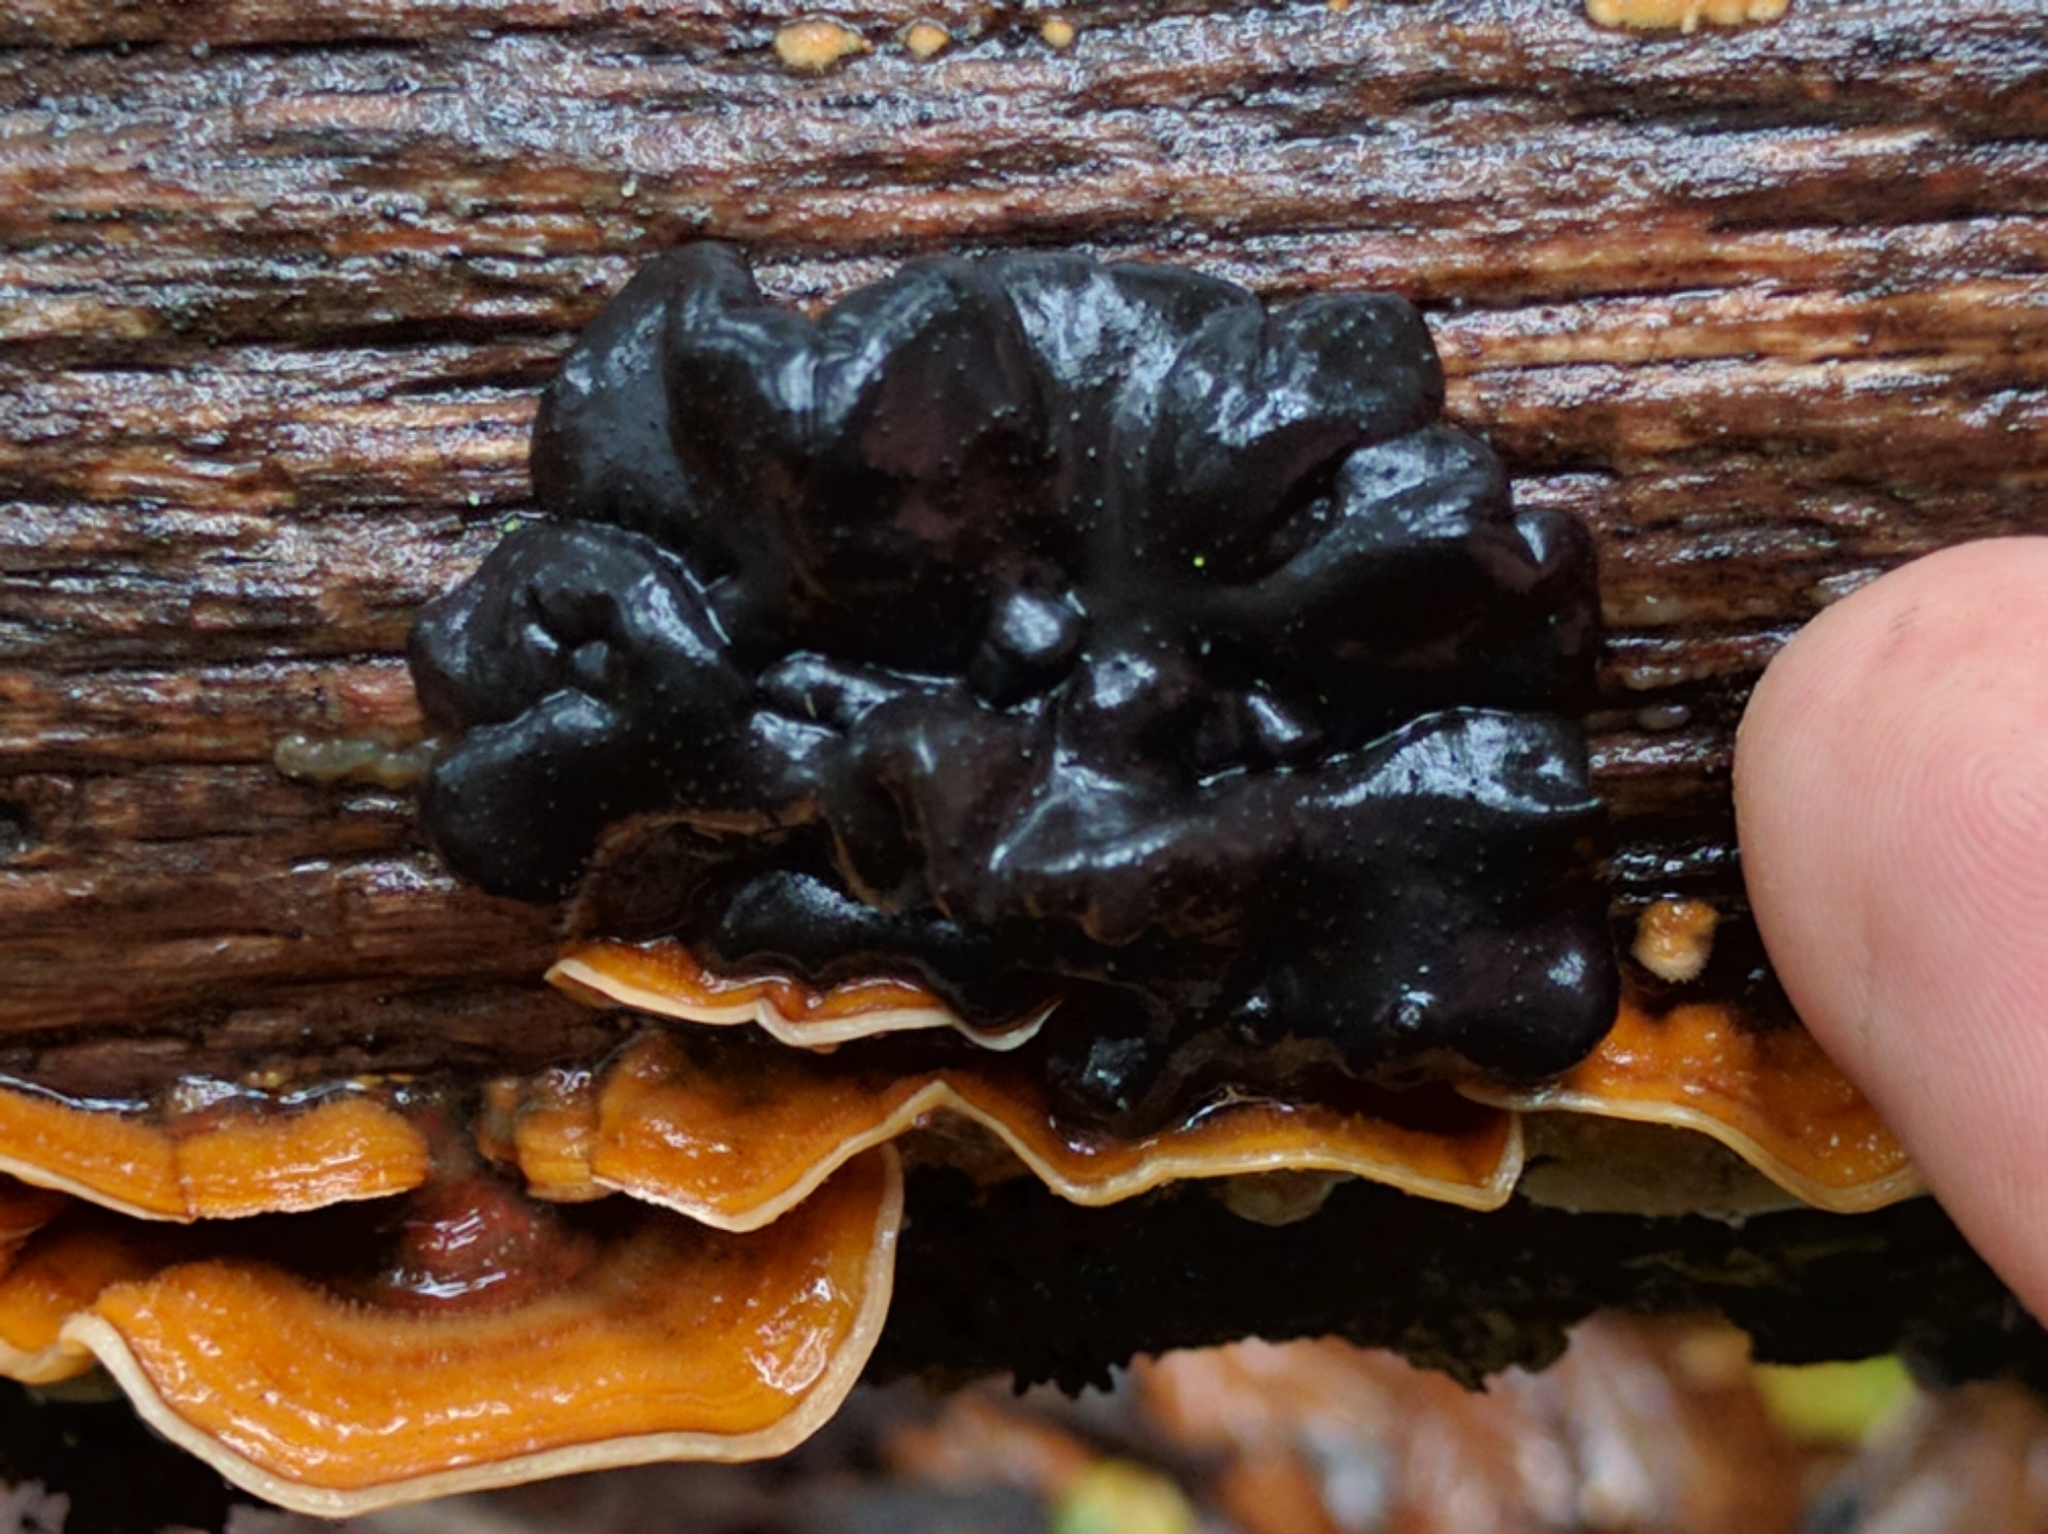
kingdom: Fungi
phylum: Basidiomycota
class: Agaricomycetes
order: Auriculariales
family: Auriculariaceae
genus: Exidia
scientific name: Exidia glandulosa
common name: Witches' butter
